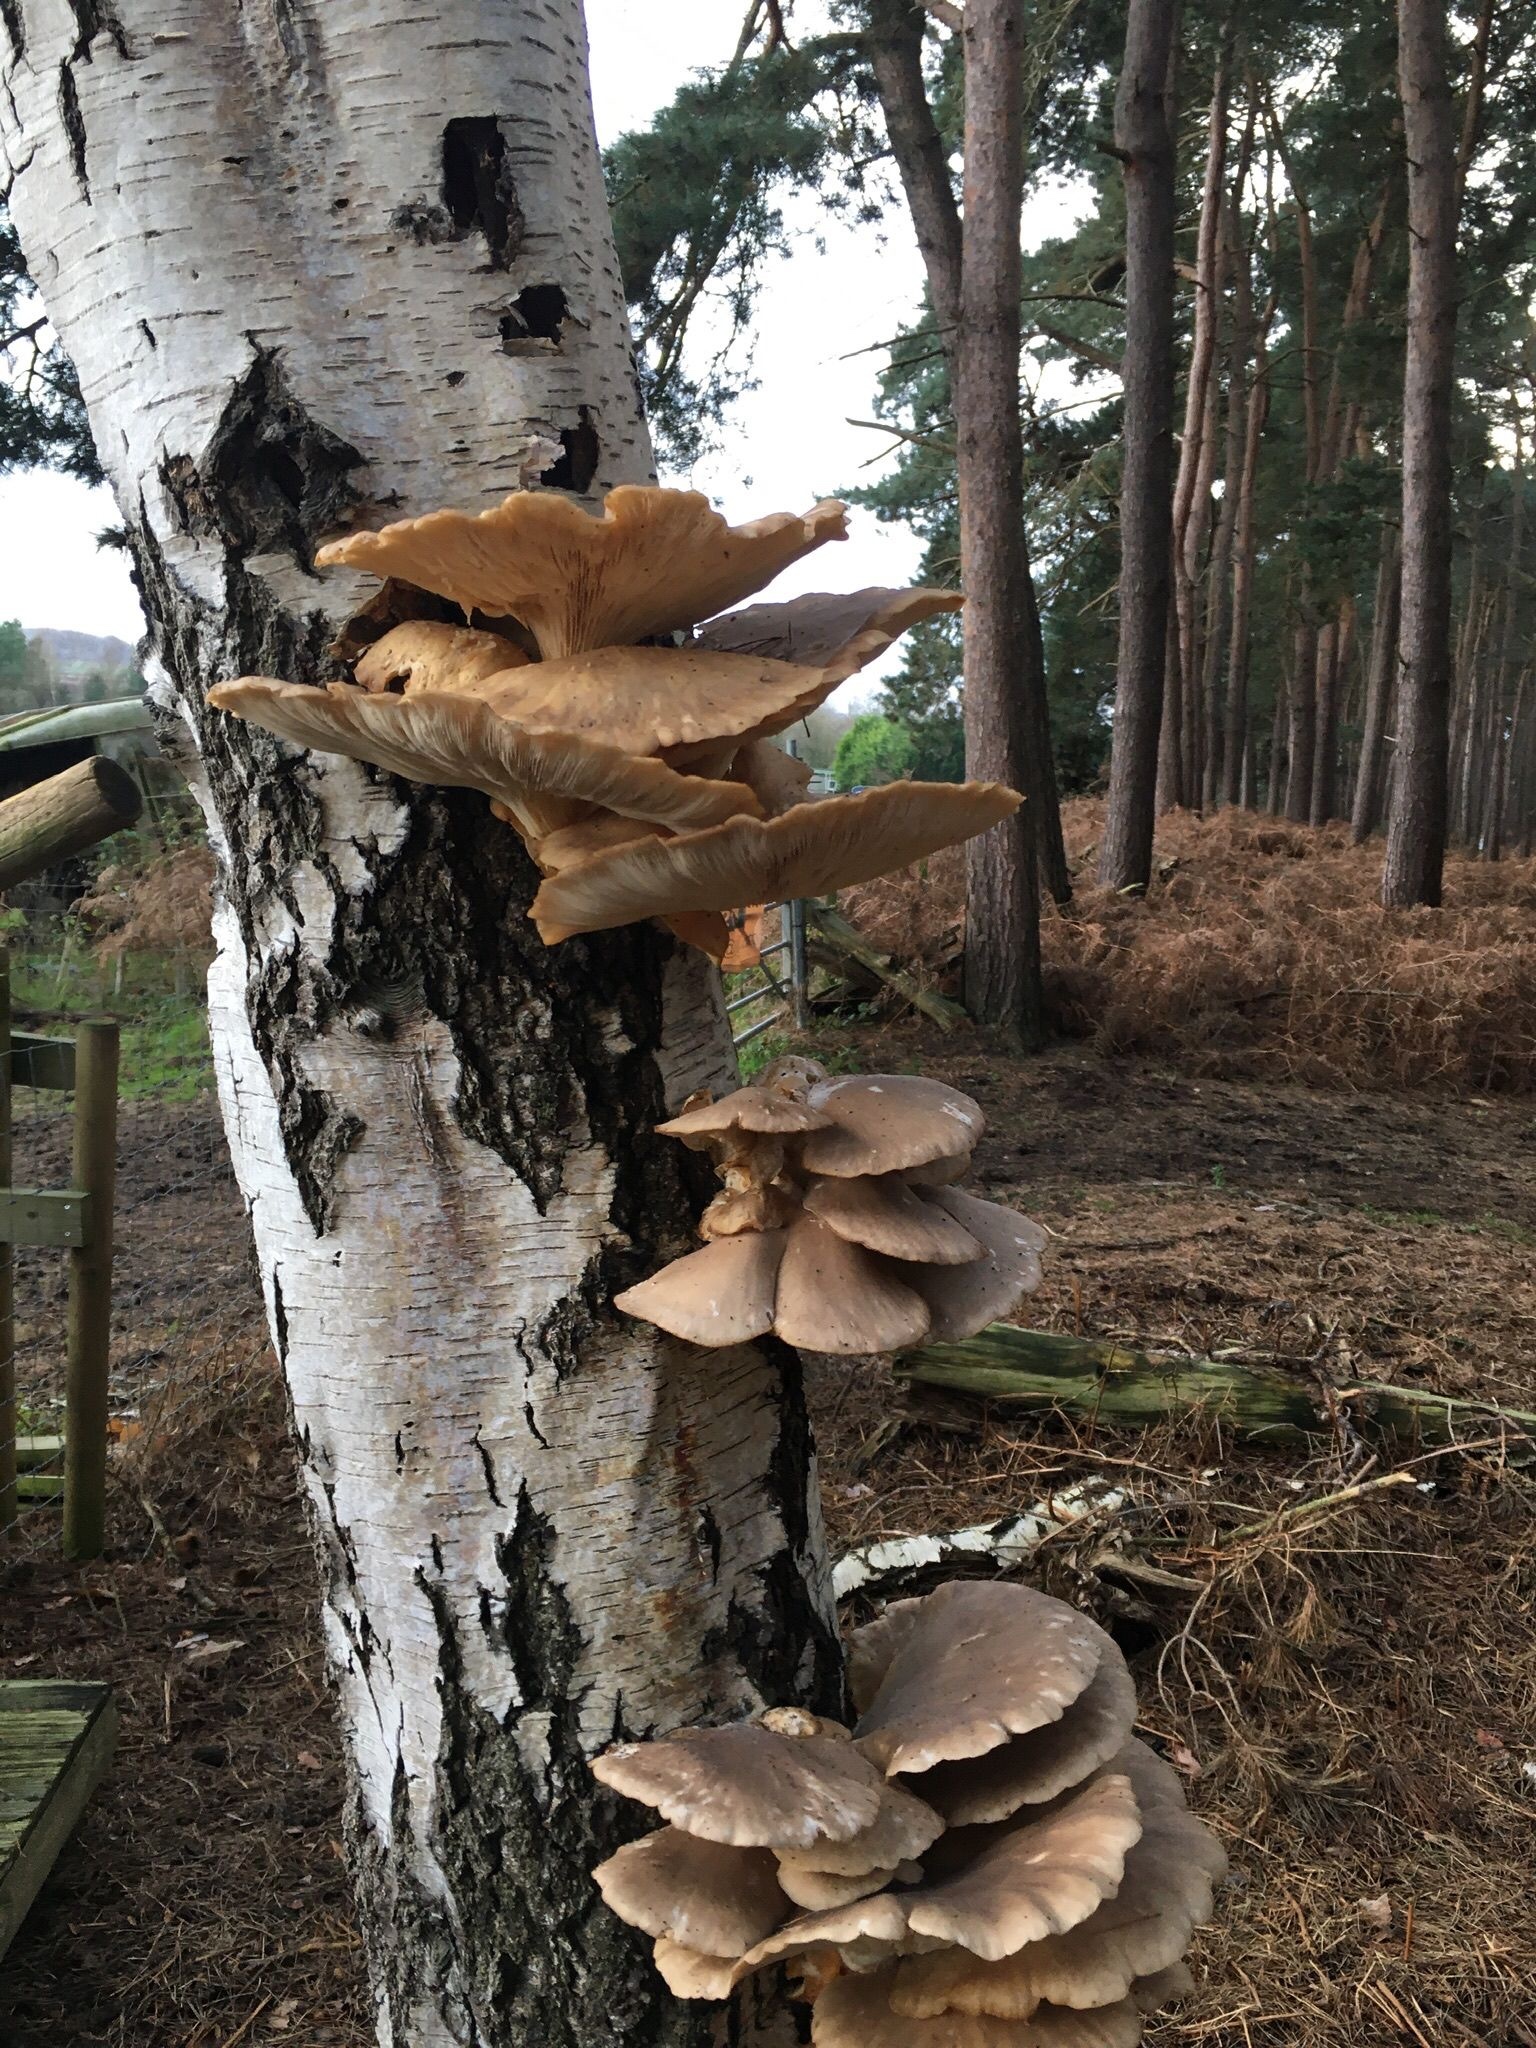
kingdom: Fungi
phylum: Basidiomycota
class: Agaricomycetes
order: Agaricales
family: Pleurotaceae
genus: Pleurotus
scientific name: Pleurotus ostreatus
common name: Oyster mushroom
